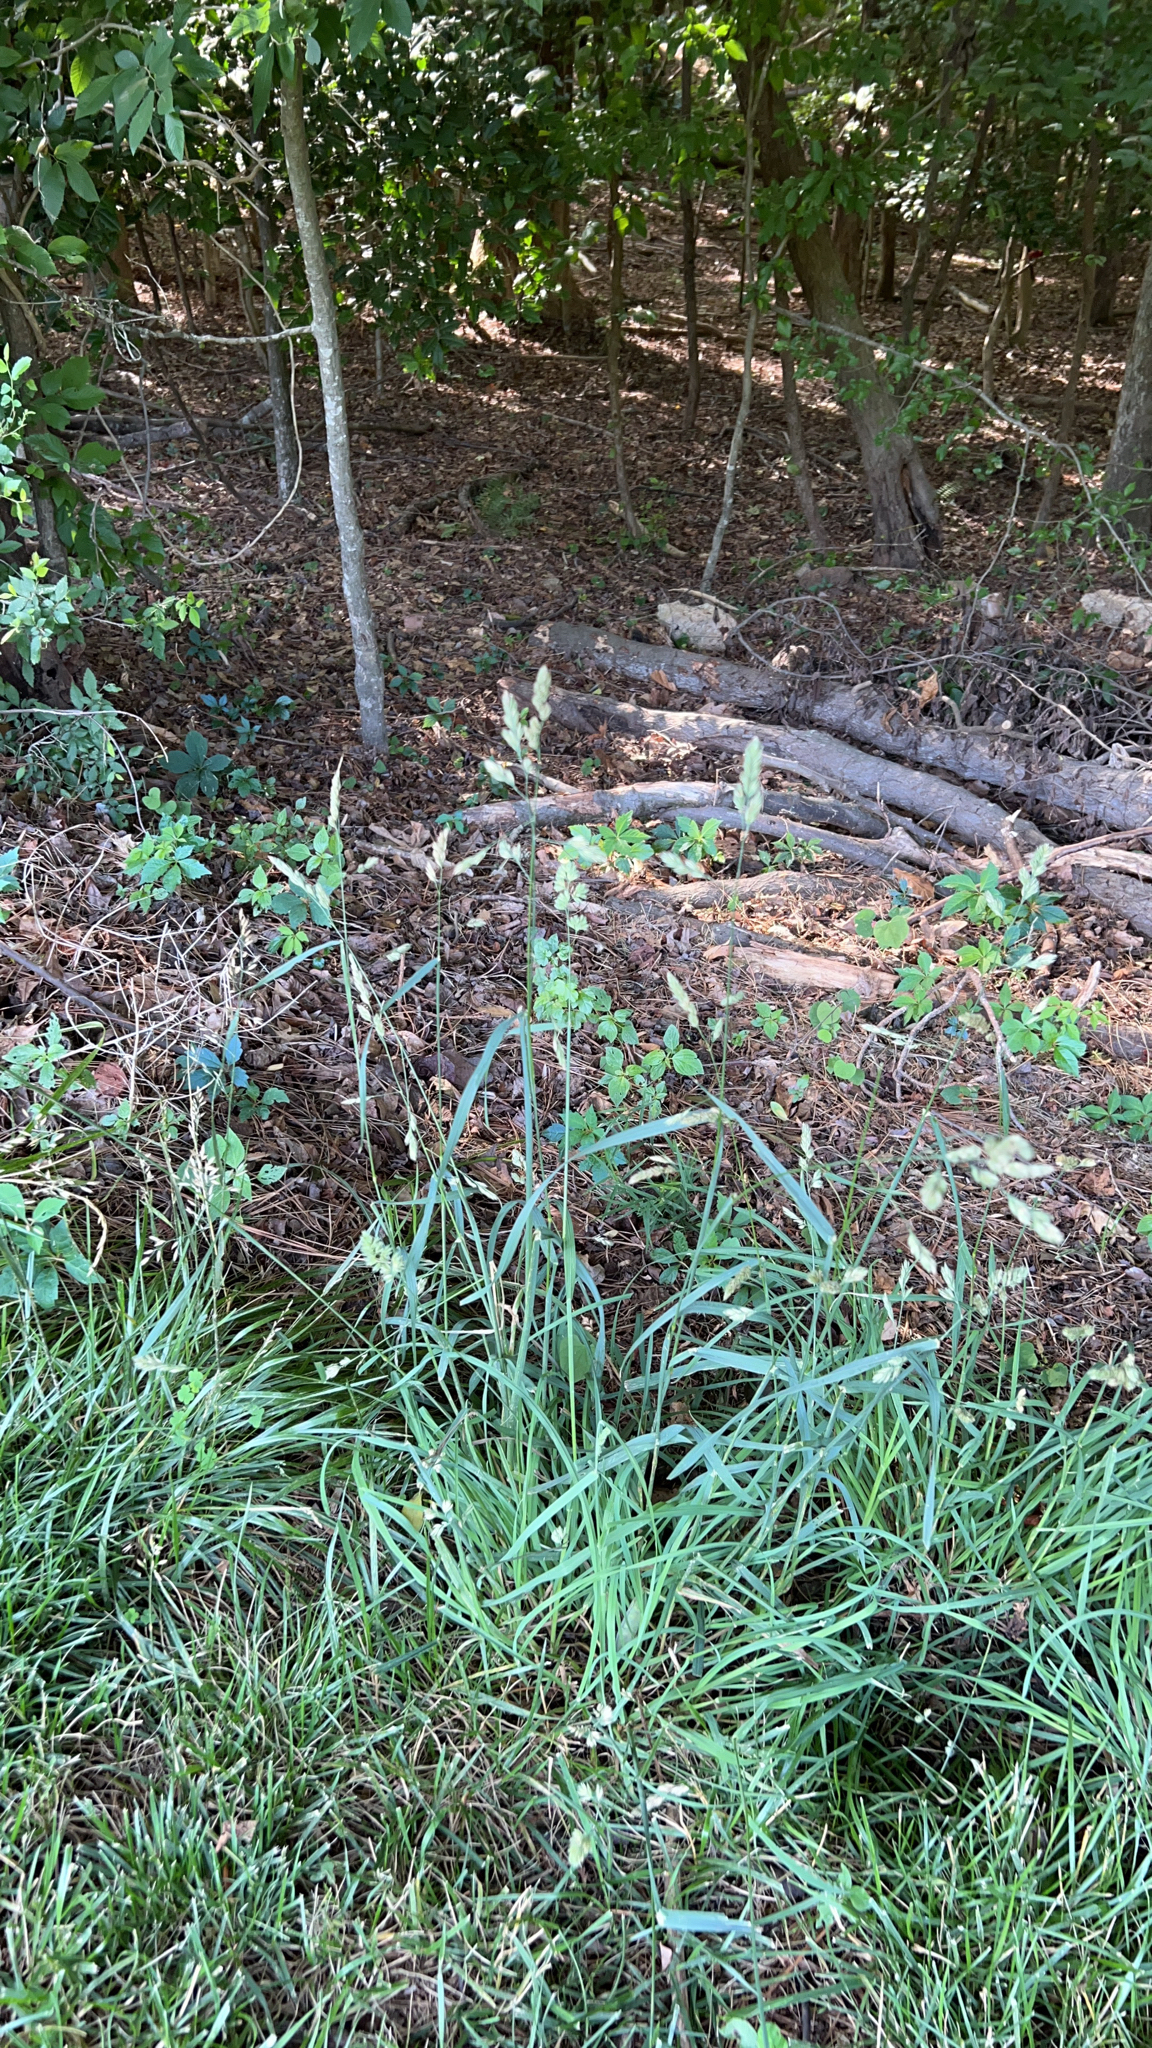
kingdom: Plantae
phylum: Tracheophyta
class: Liliopsida
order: Poales
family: Poaceae
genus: Dactylis
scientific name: Dactylis glomerata
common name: Orchardgrass
